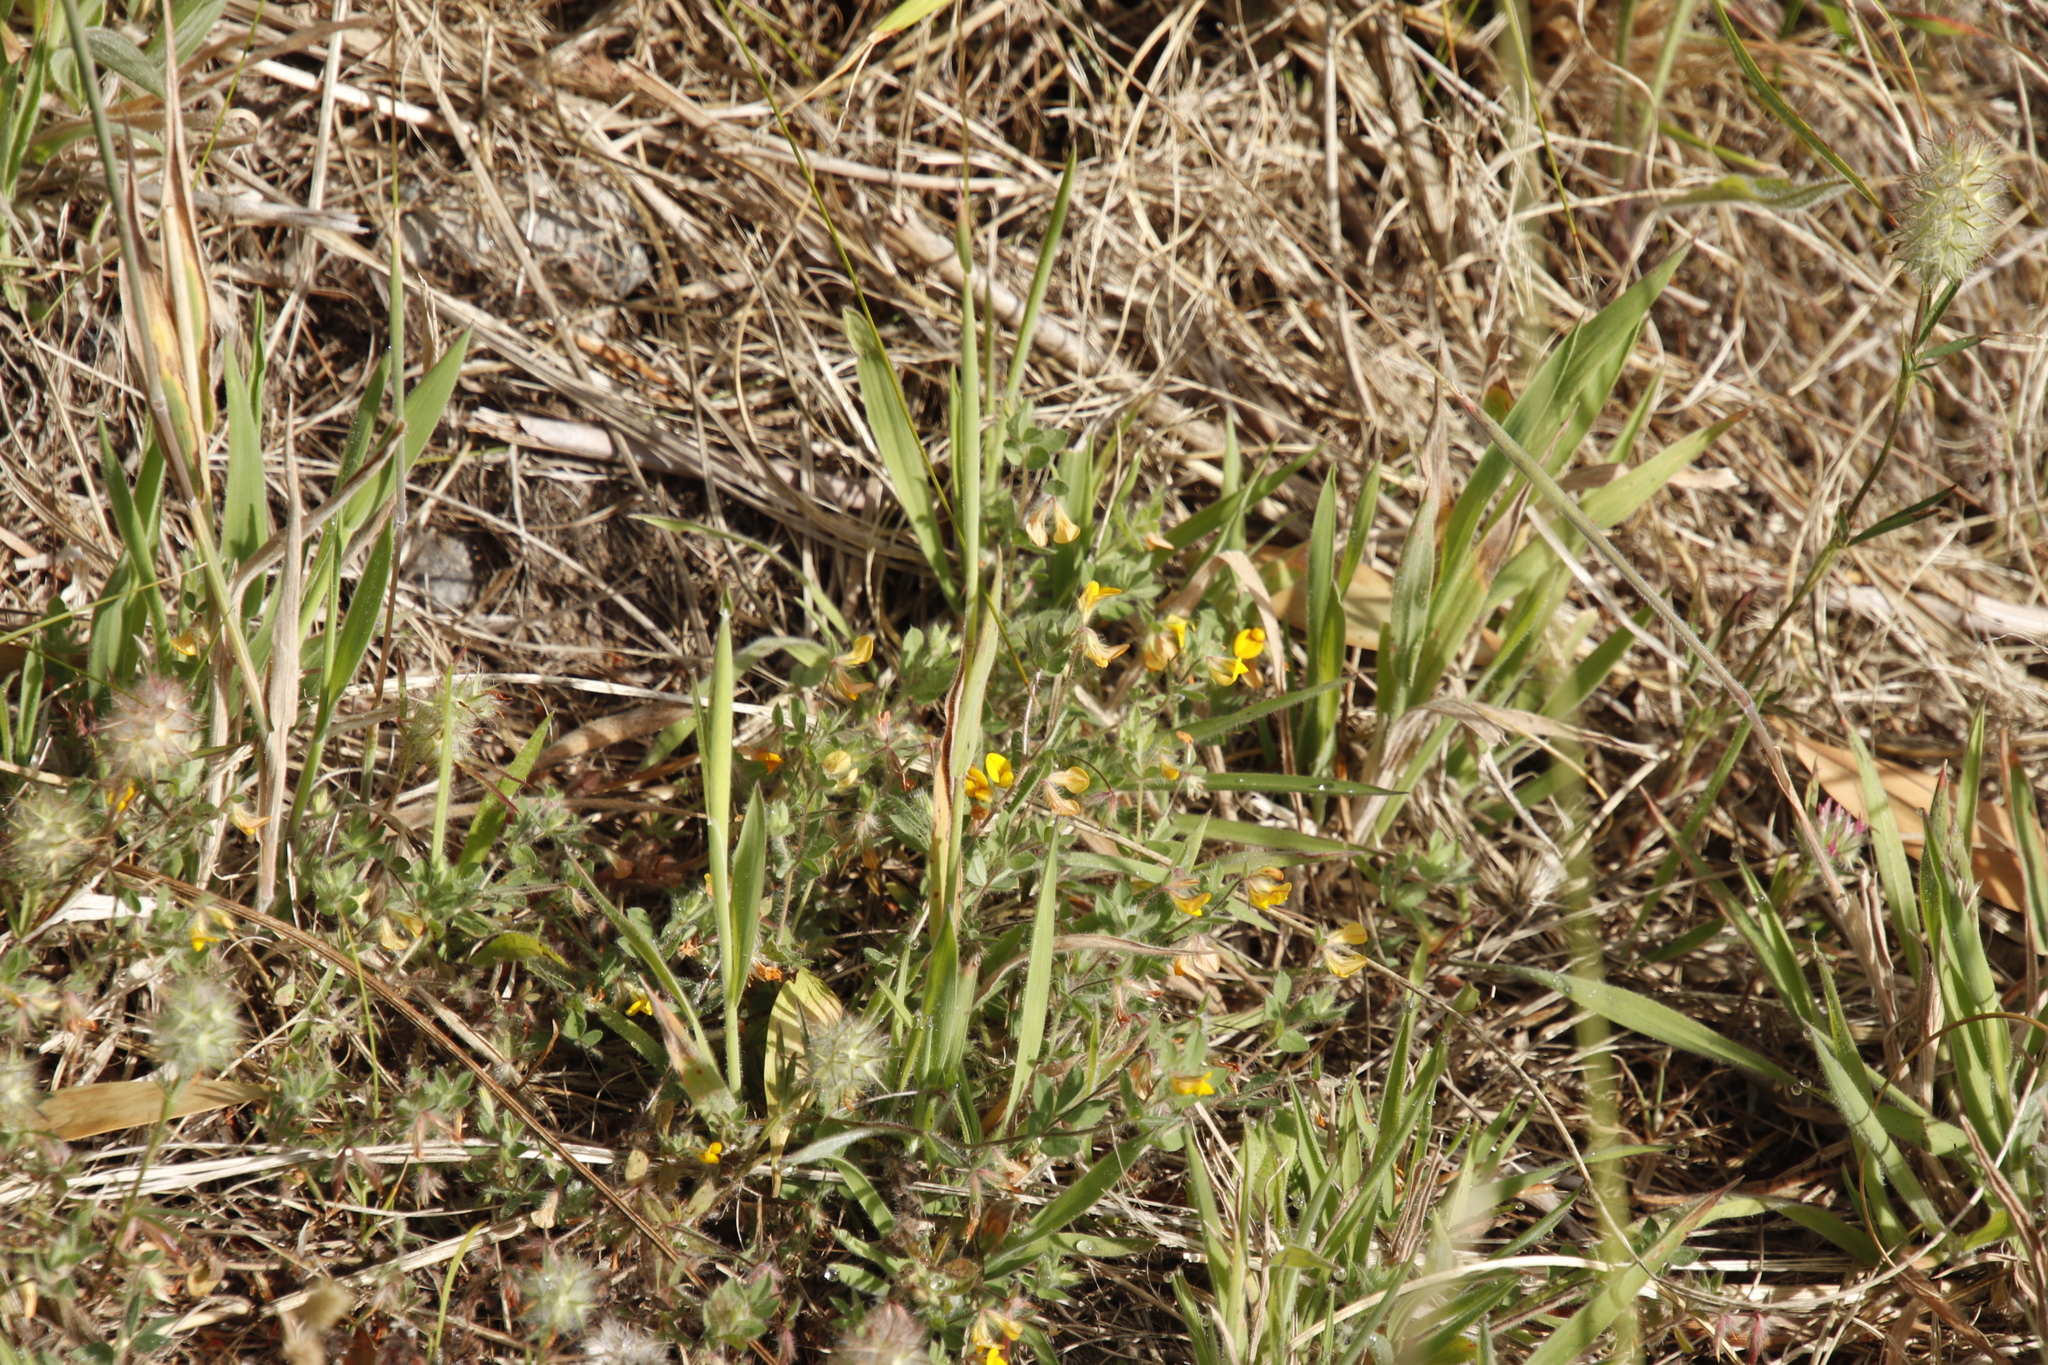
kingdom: Plantae
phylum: Tracheophyta
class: Magnoliopsida
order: Fabales
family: Fabaceae
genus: Lotus
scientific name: Lotus subbiflorus
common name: Hairy bird's-foot trefoil
